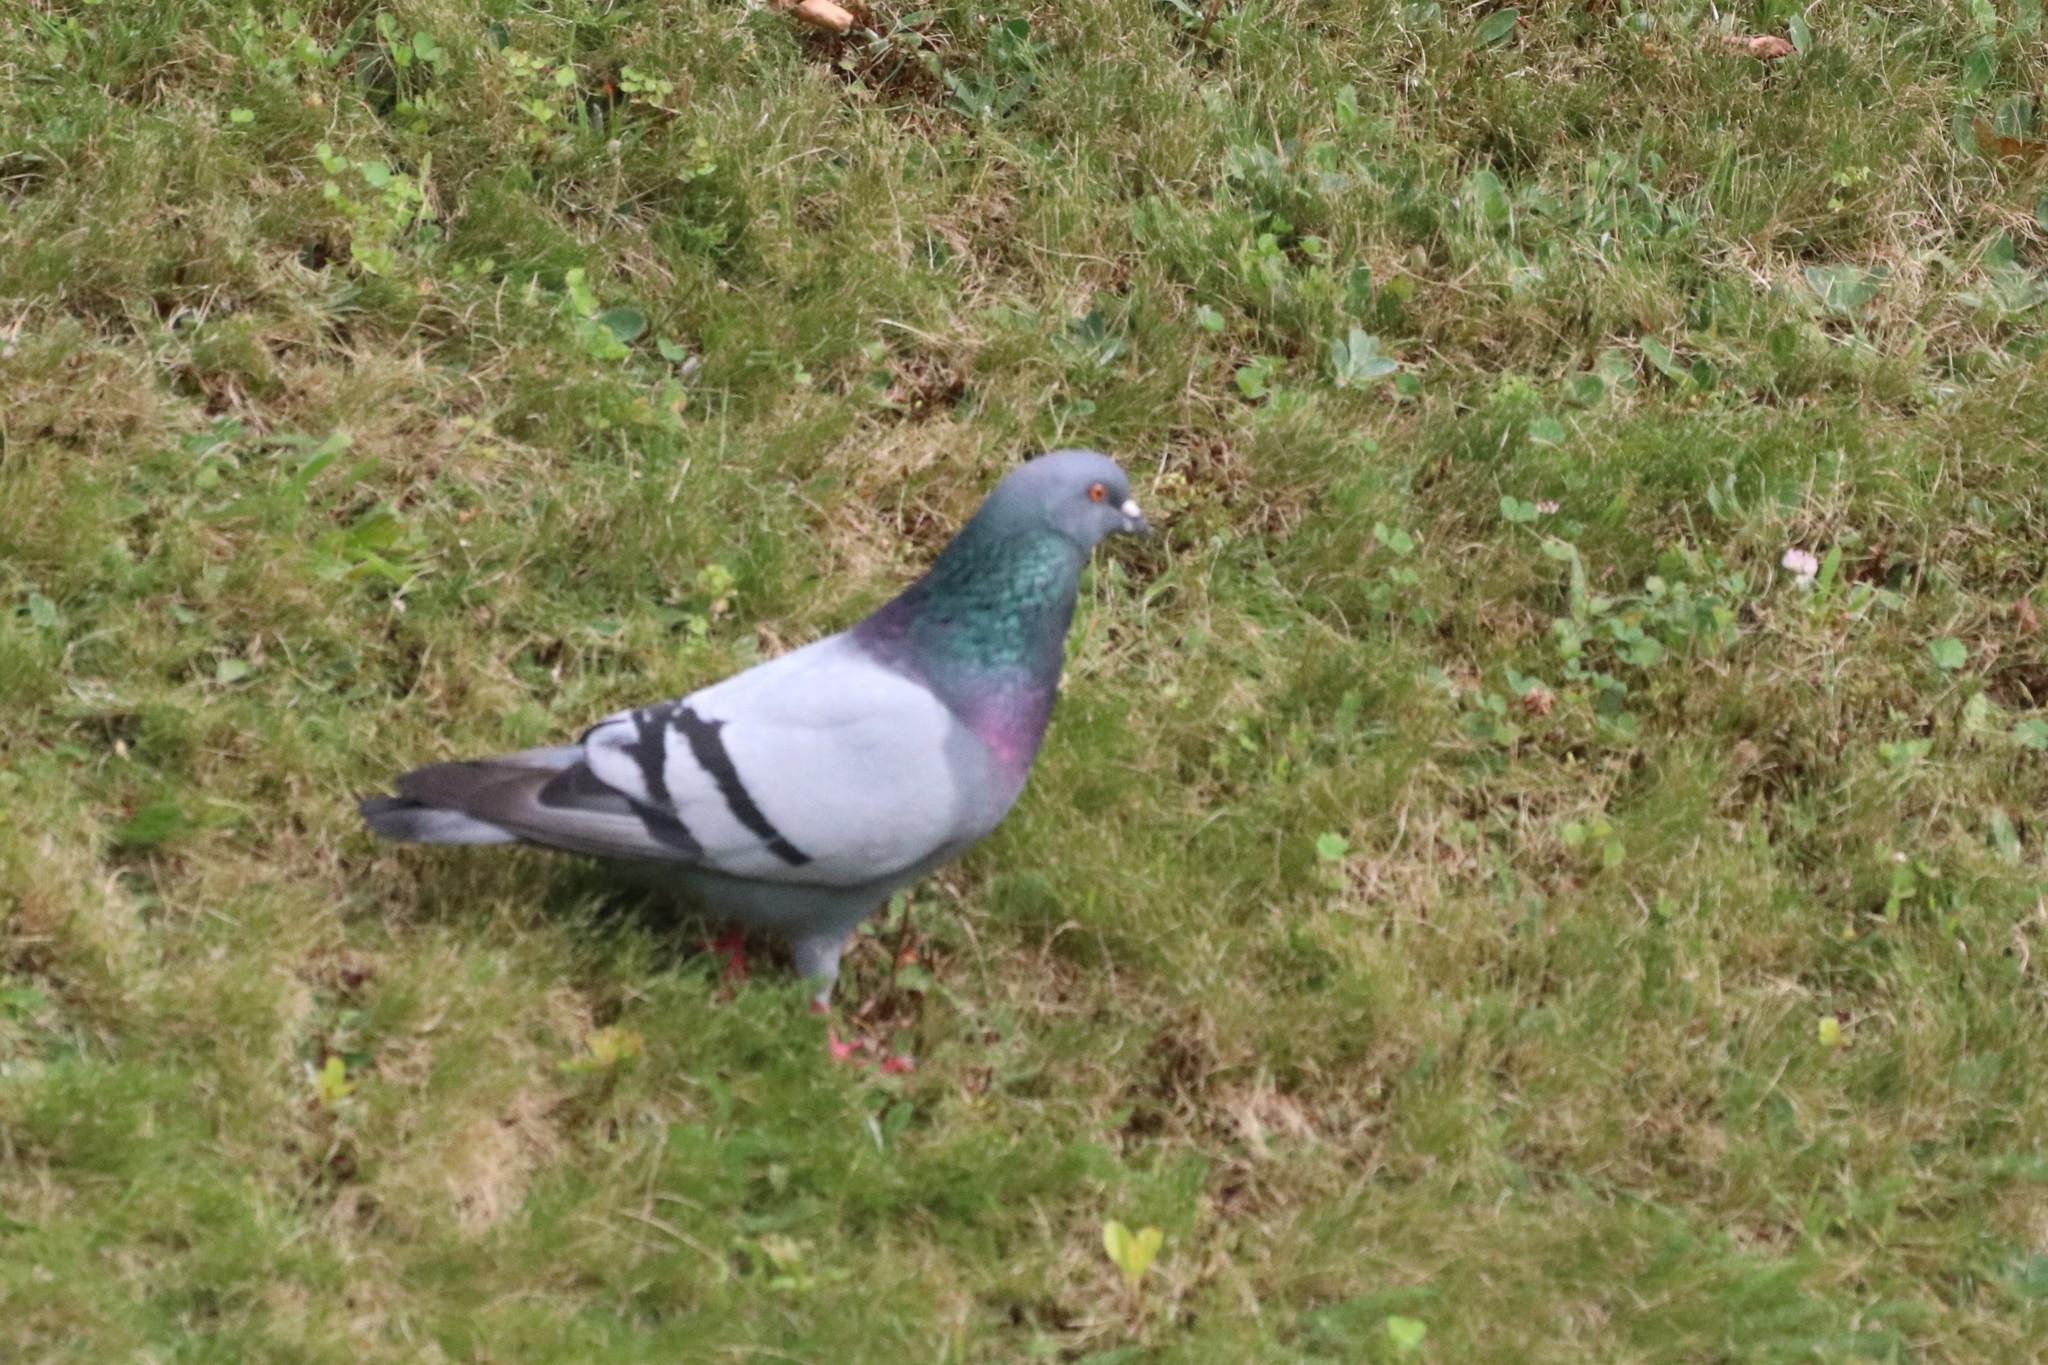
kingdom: Animalia
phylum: Chordata
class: Aves
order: Columbiformes
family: Columbidae
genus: Columba
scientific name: Columba livia
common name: Rock pigeon
